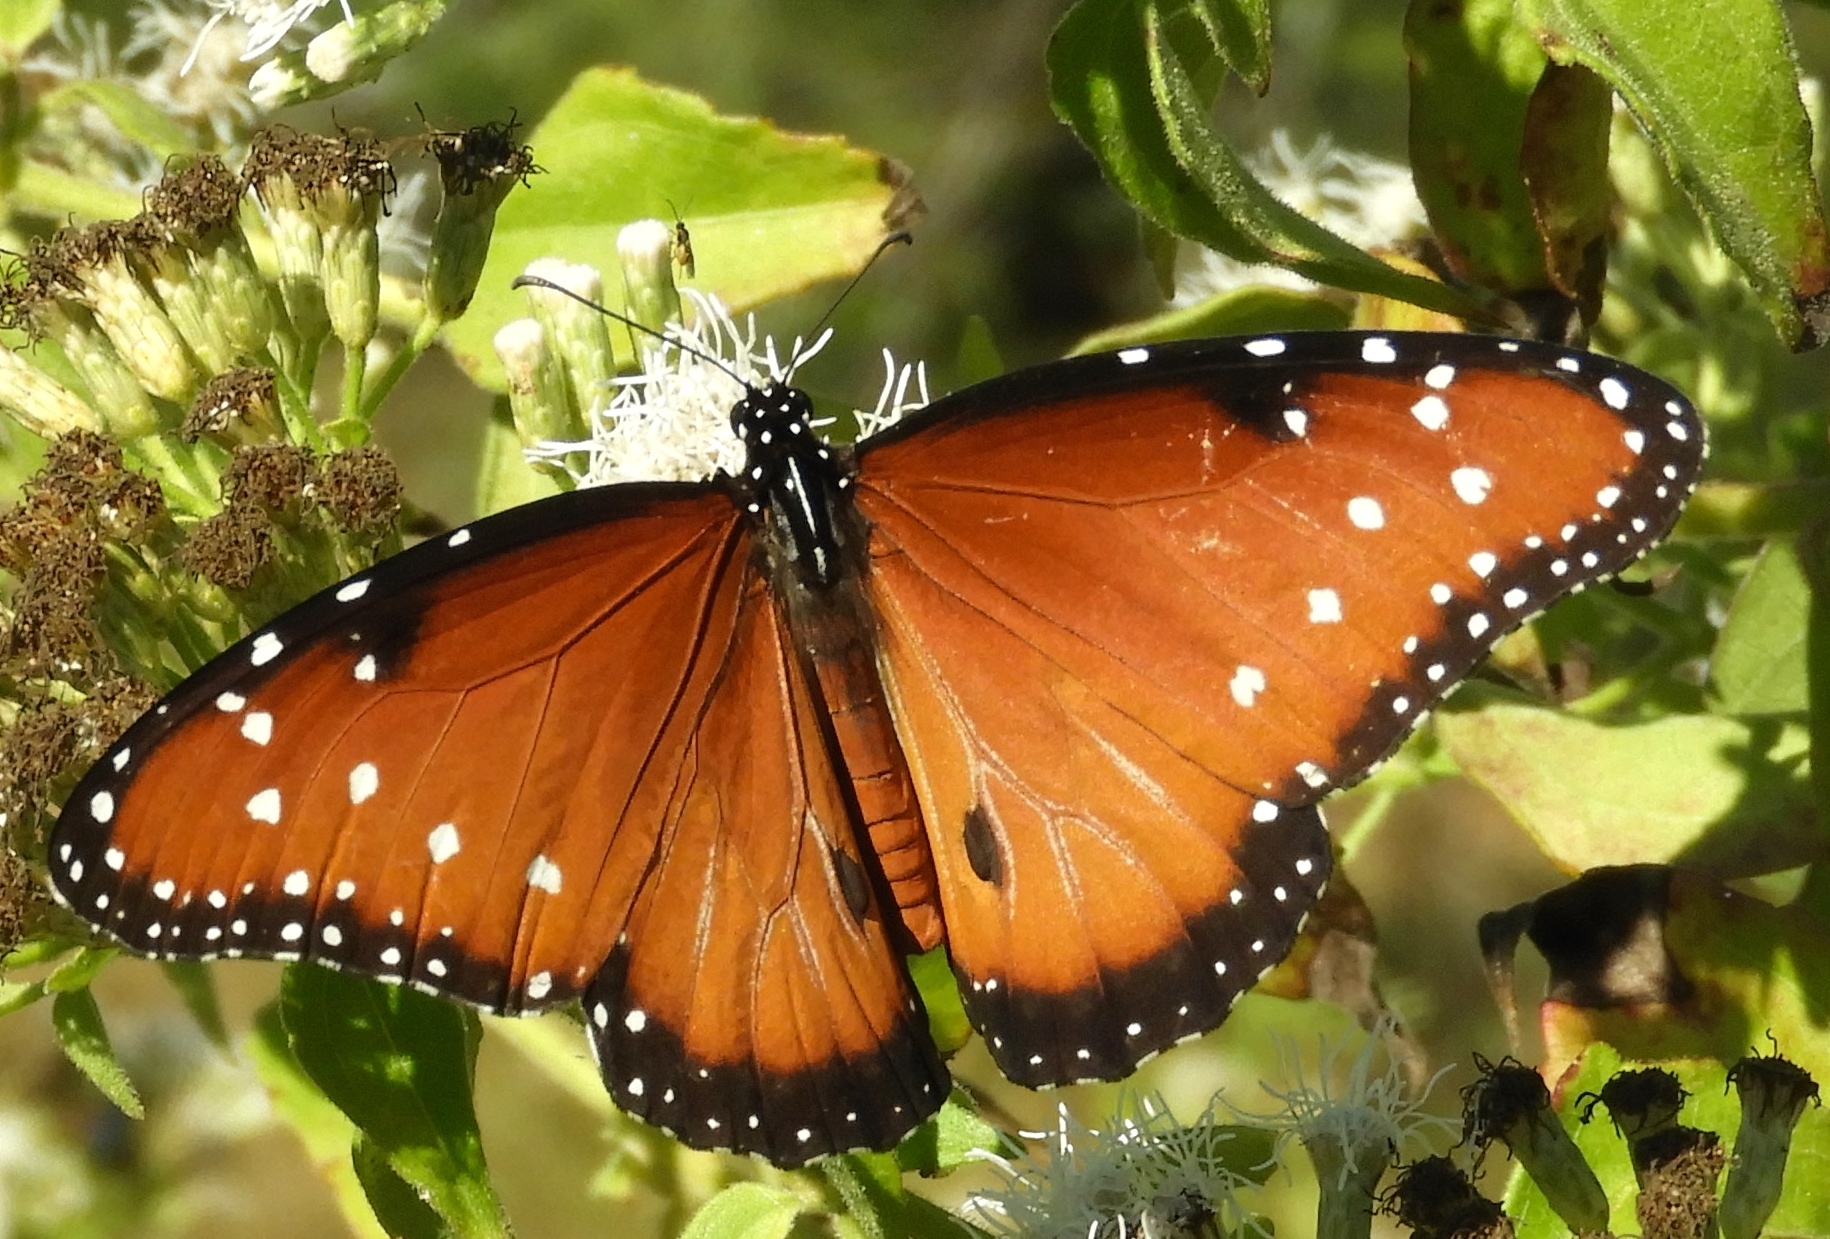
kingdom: Animalia
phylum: Arthropoda
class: Insecta
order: Lepidoptera
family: Nymphalidae
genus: Danaus
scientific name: Danaus gilippus
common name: Queen
